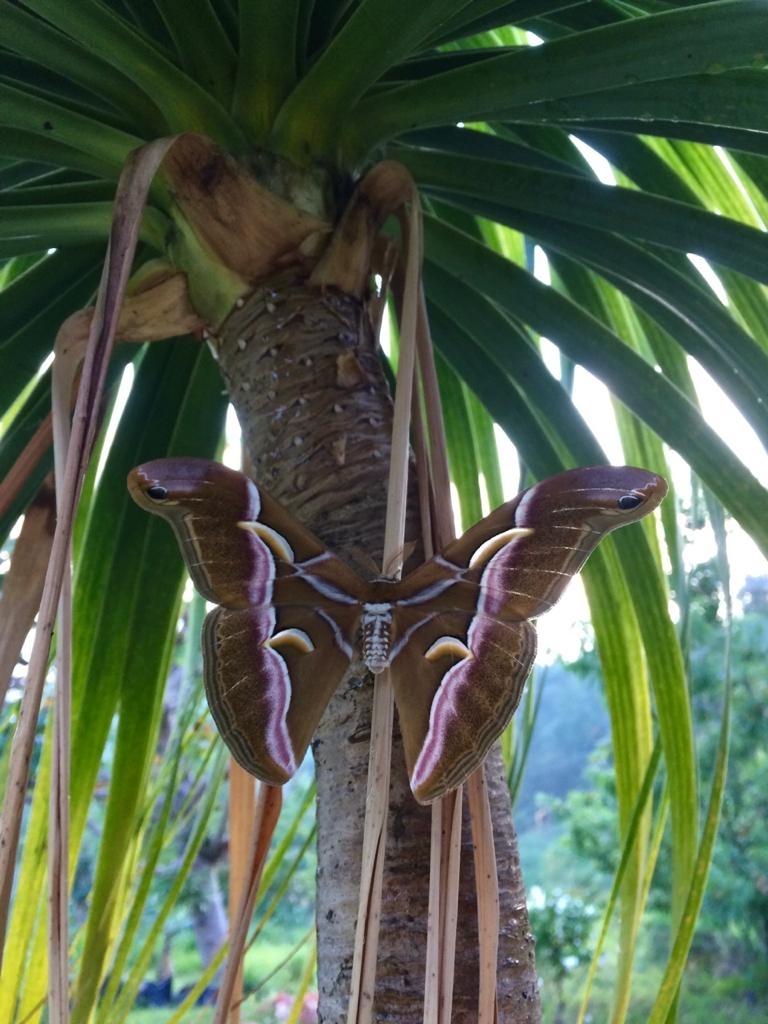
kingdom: Animalia
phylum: Arthropoda
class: Insecta
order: Lepidoptera
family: Saturniidae
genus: Samia
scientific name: Samia cynthia
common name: Ailanthus silkmoth
